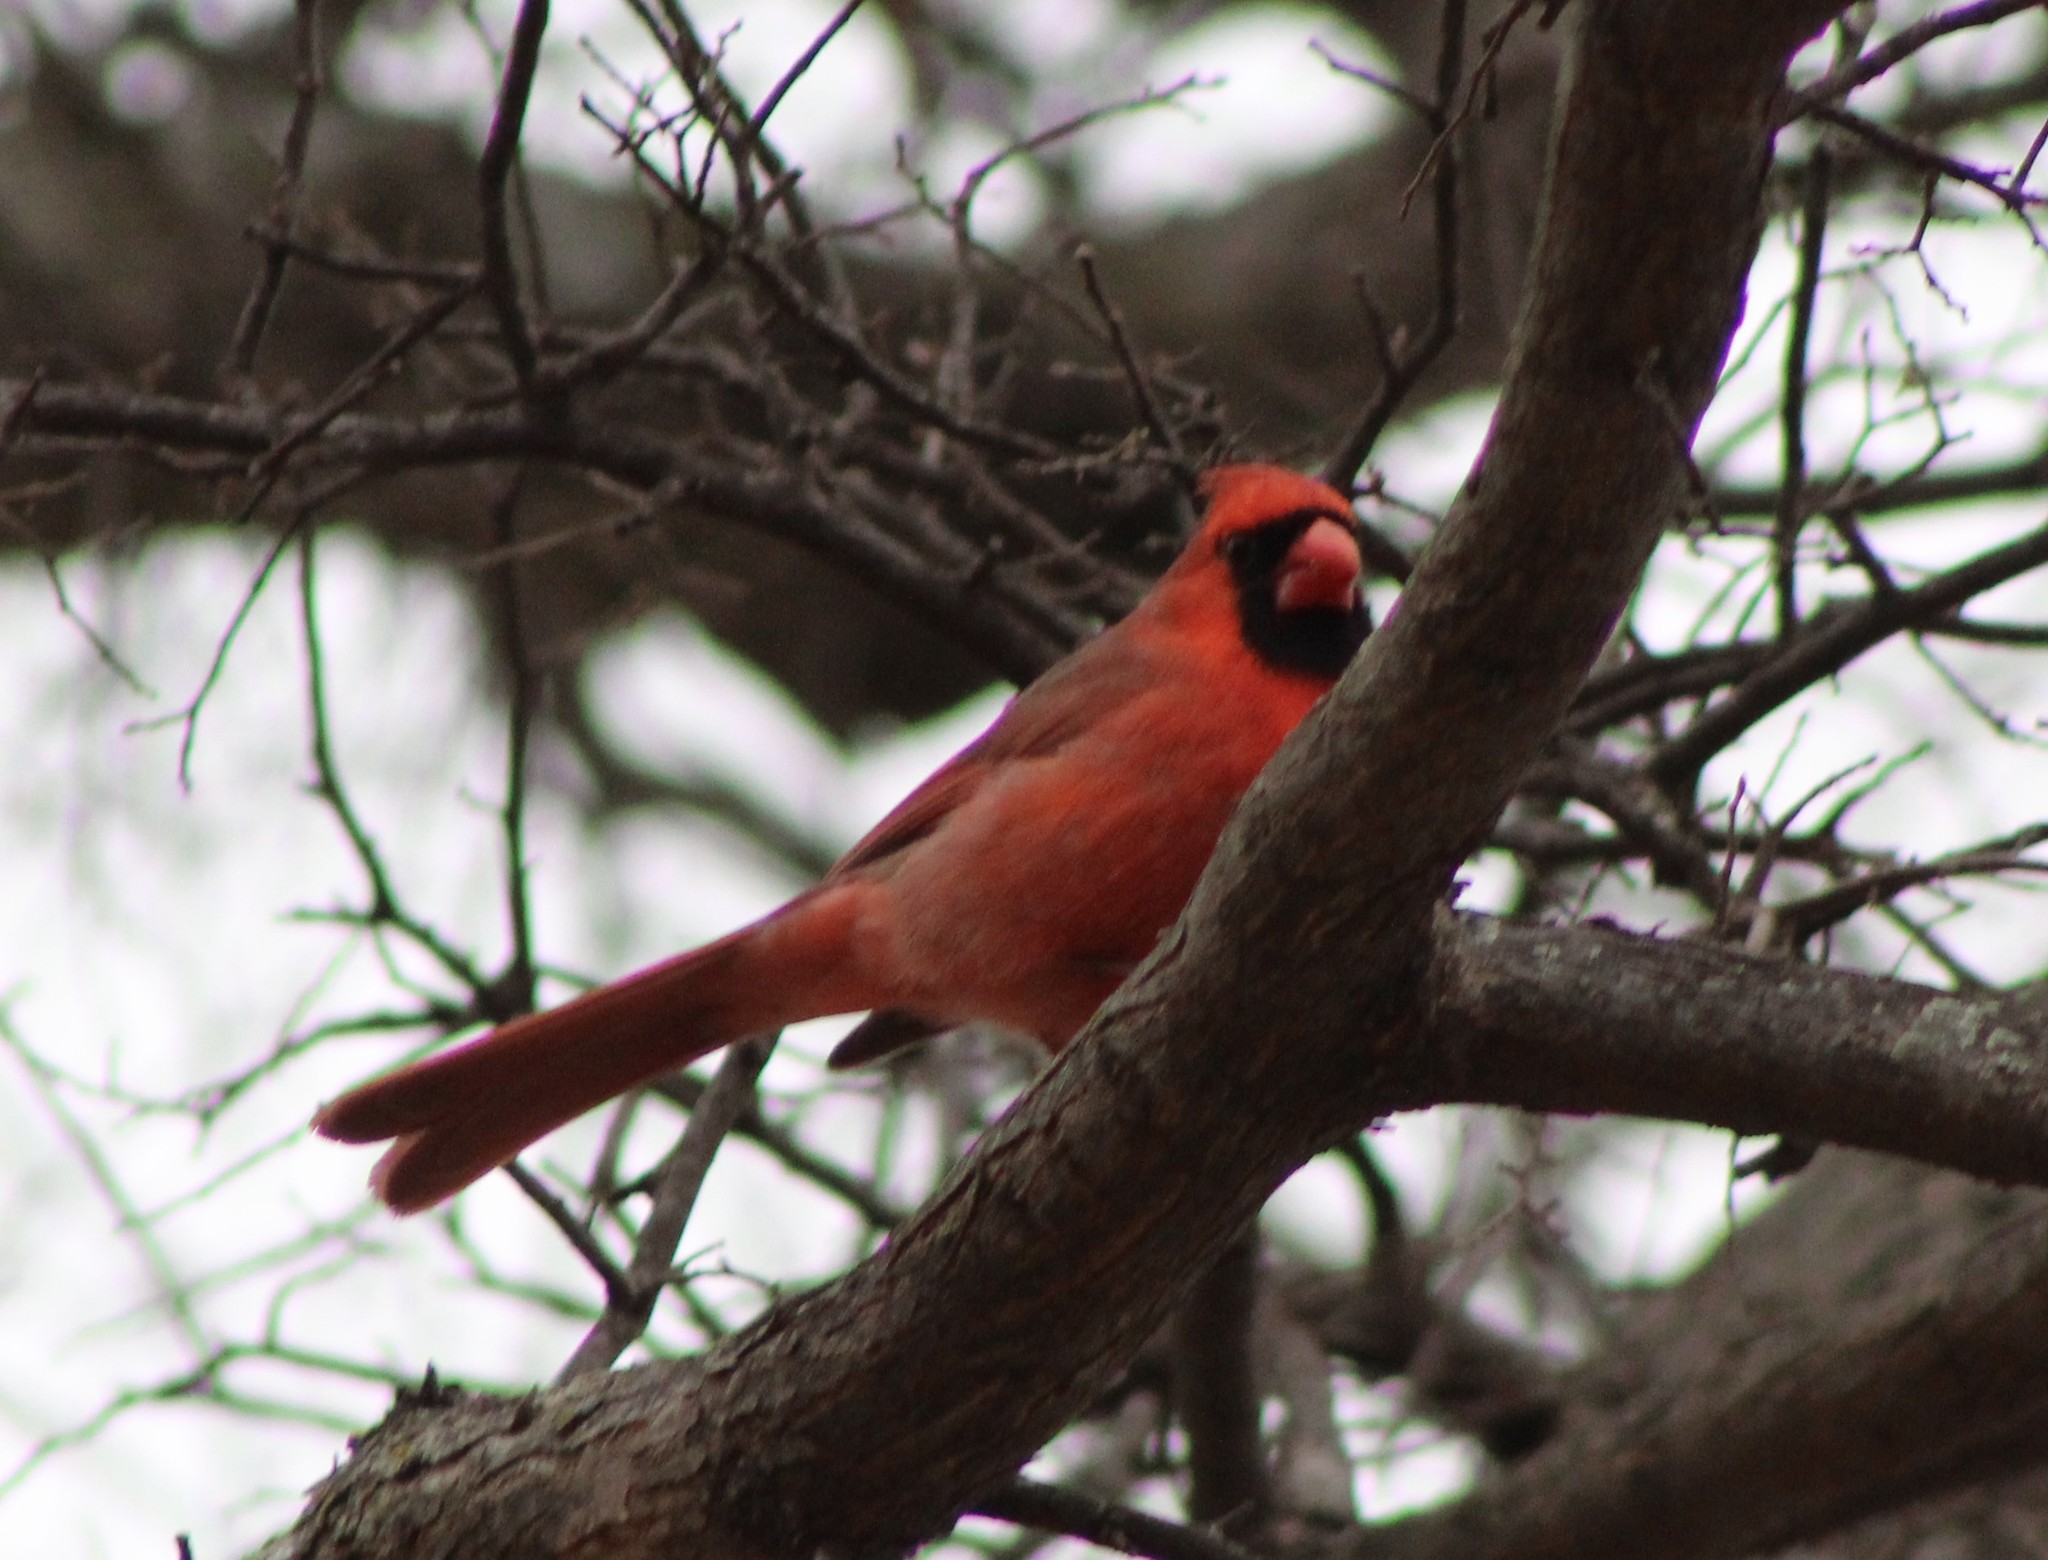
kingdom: Animalia
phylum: Chordata
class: Aves
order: Passeriformes
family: Cardinalidae
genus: Cardinalis
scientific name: Cardinalis cardinalis
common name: Northern cardinal
